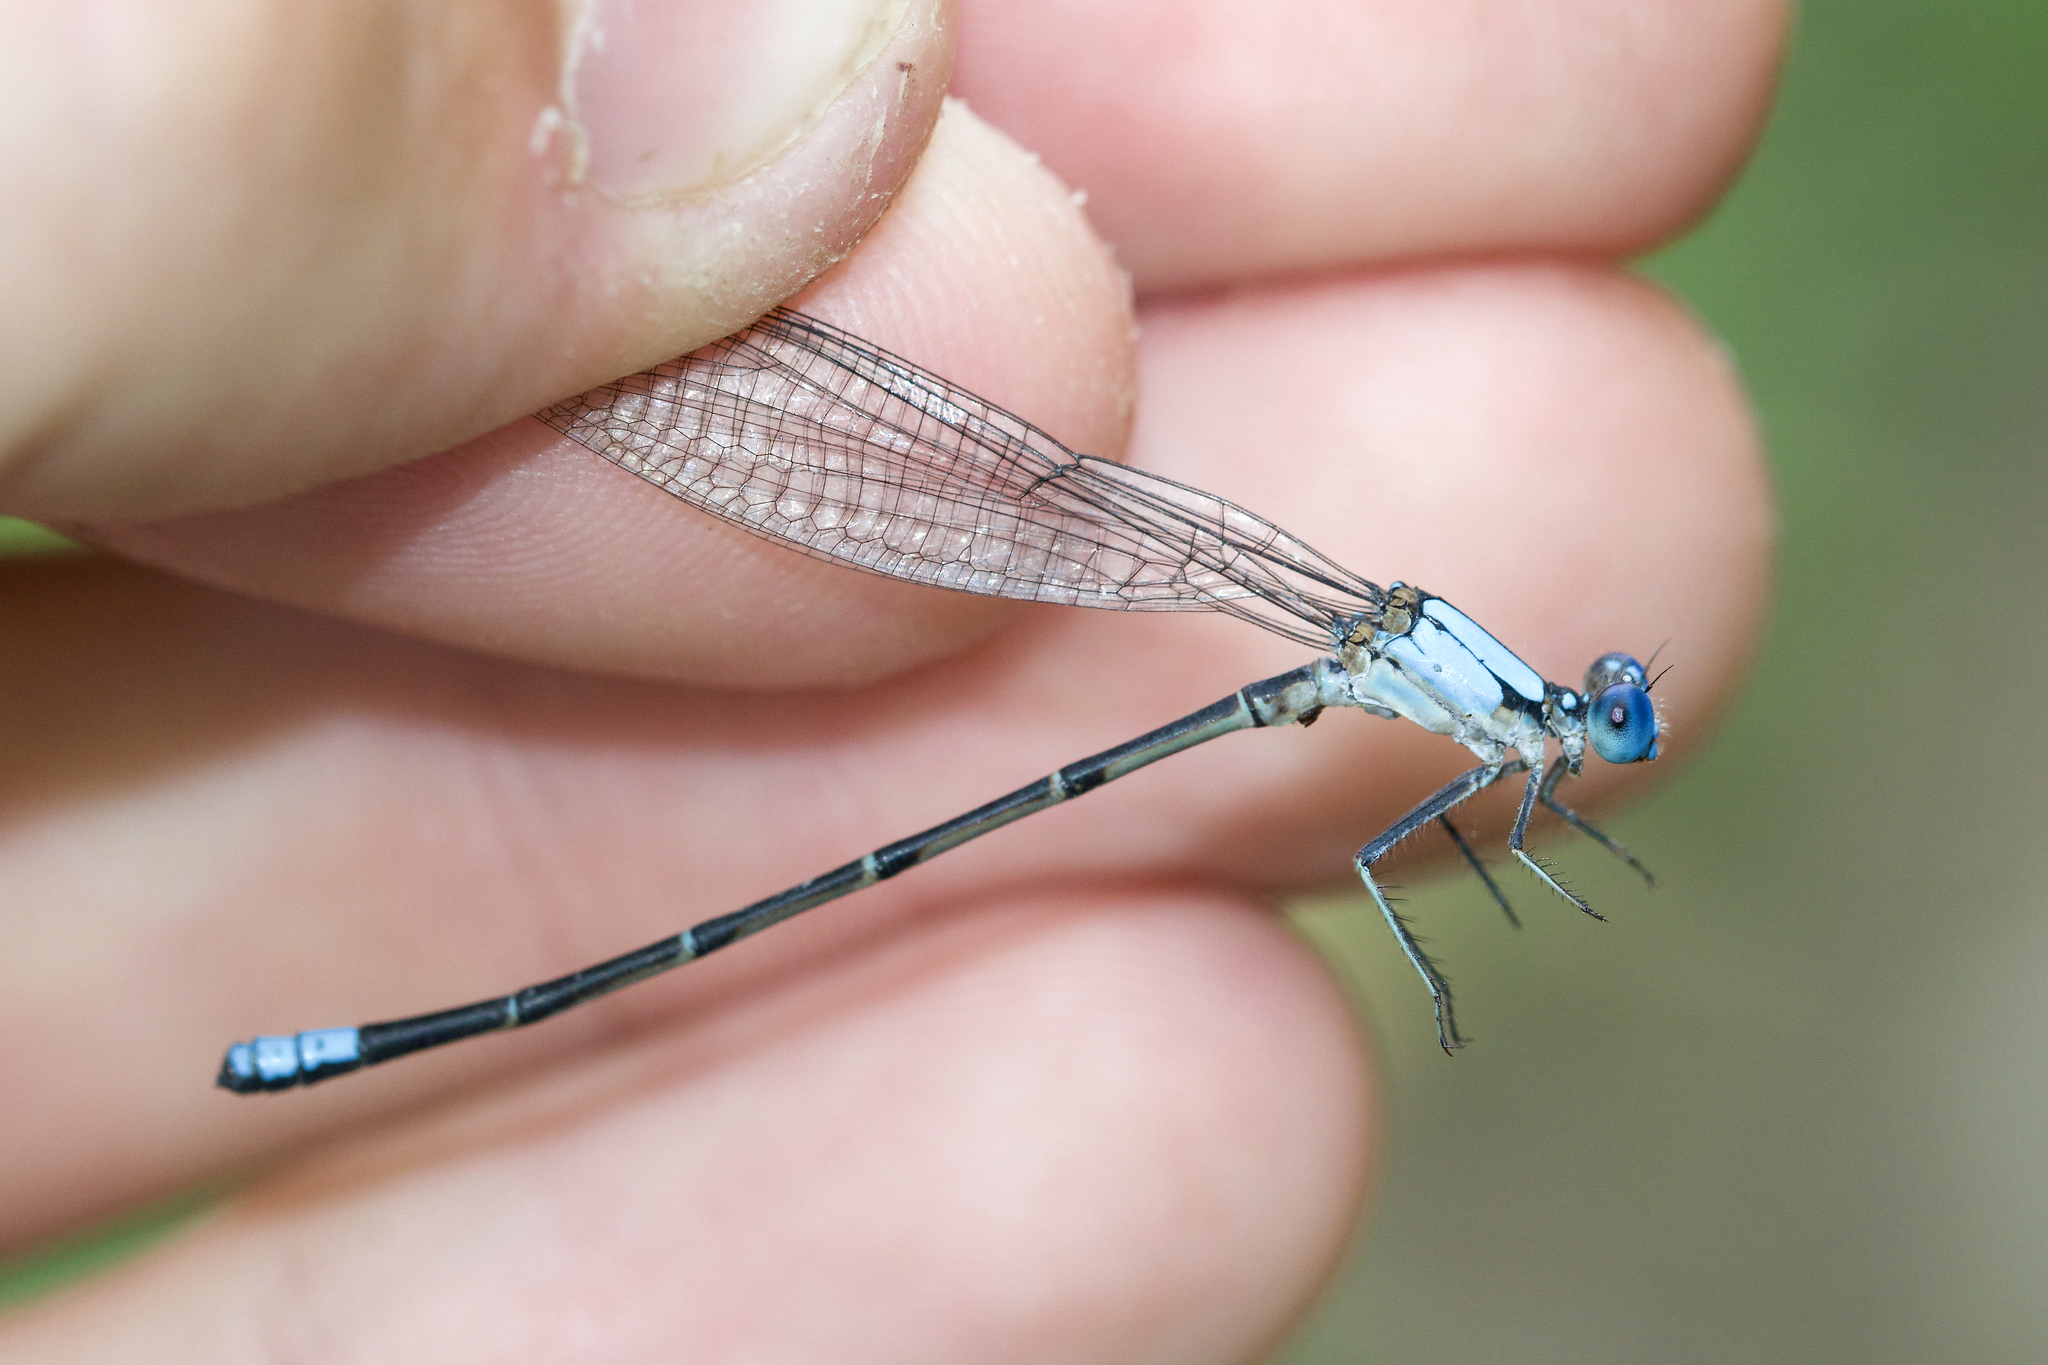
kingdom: Animalia
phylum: Arthropoda
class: Insecta
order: Odonata
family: Coenagrionidae
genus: Argia
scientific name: Argia apicalis
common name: Blue-fronted dancer
